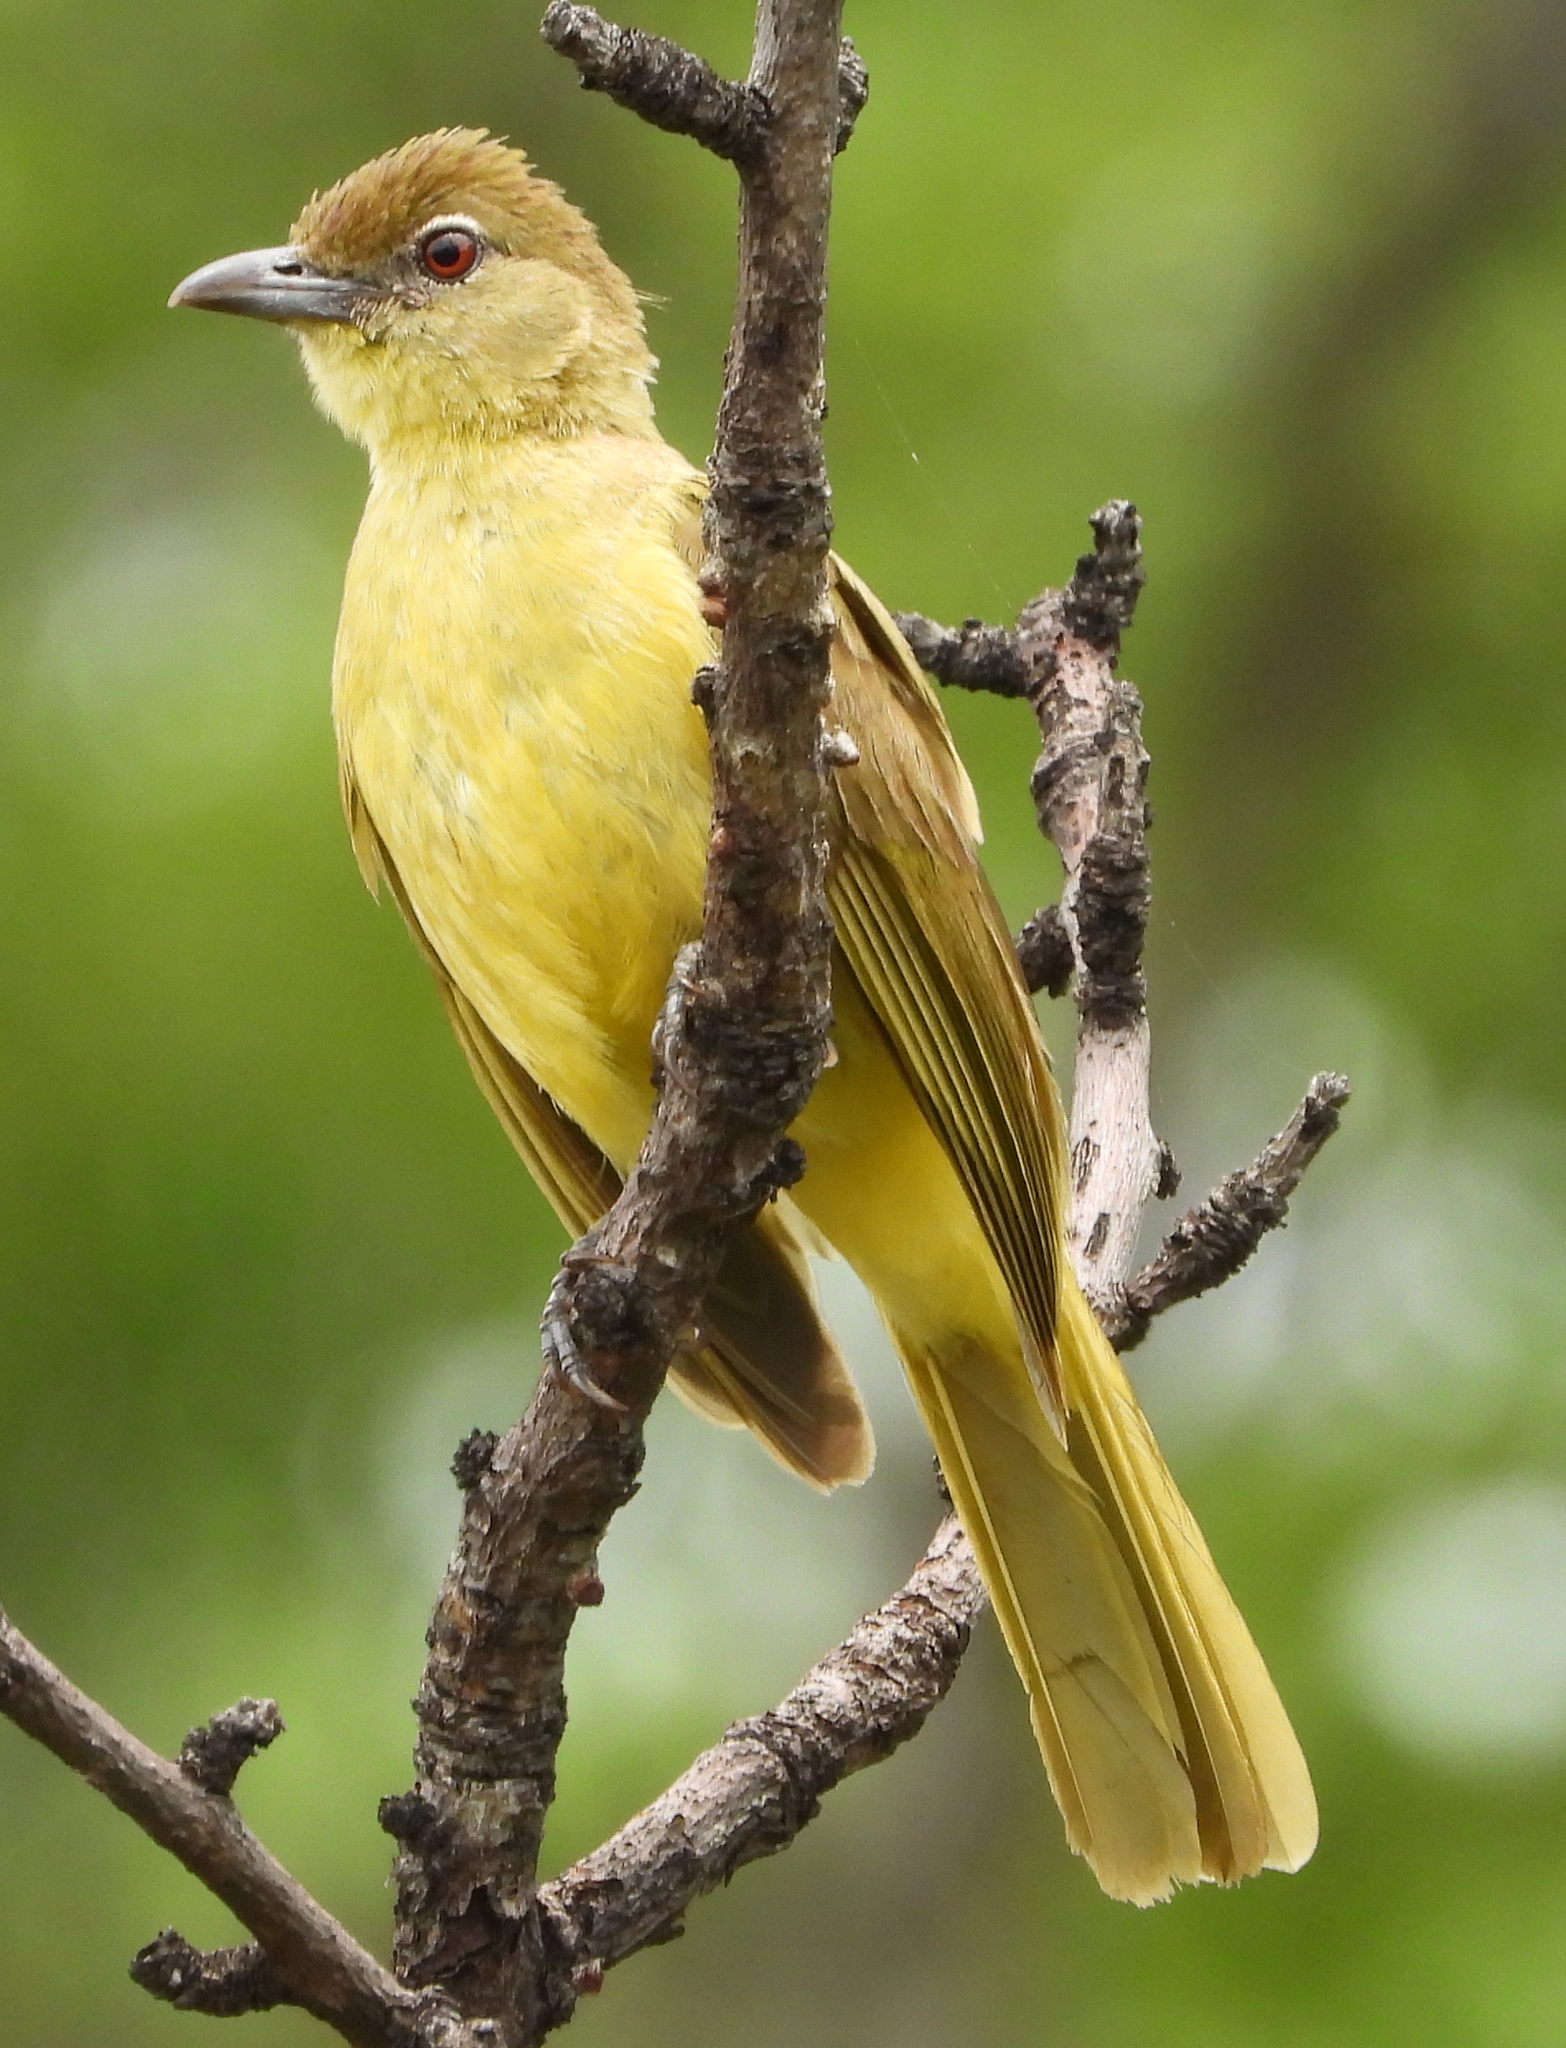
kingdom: Animalia
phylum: Chordata
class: Aves
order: Passeriformes
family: Pycnonotidae
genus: Chlorocichla
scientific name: Chlorocichla flaviventris
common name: Yellow-bellied greenbul
